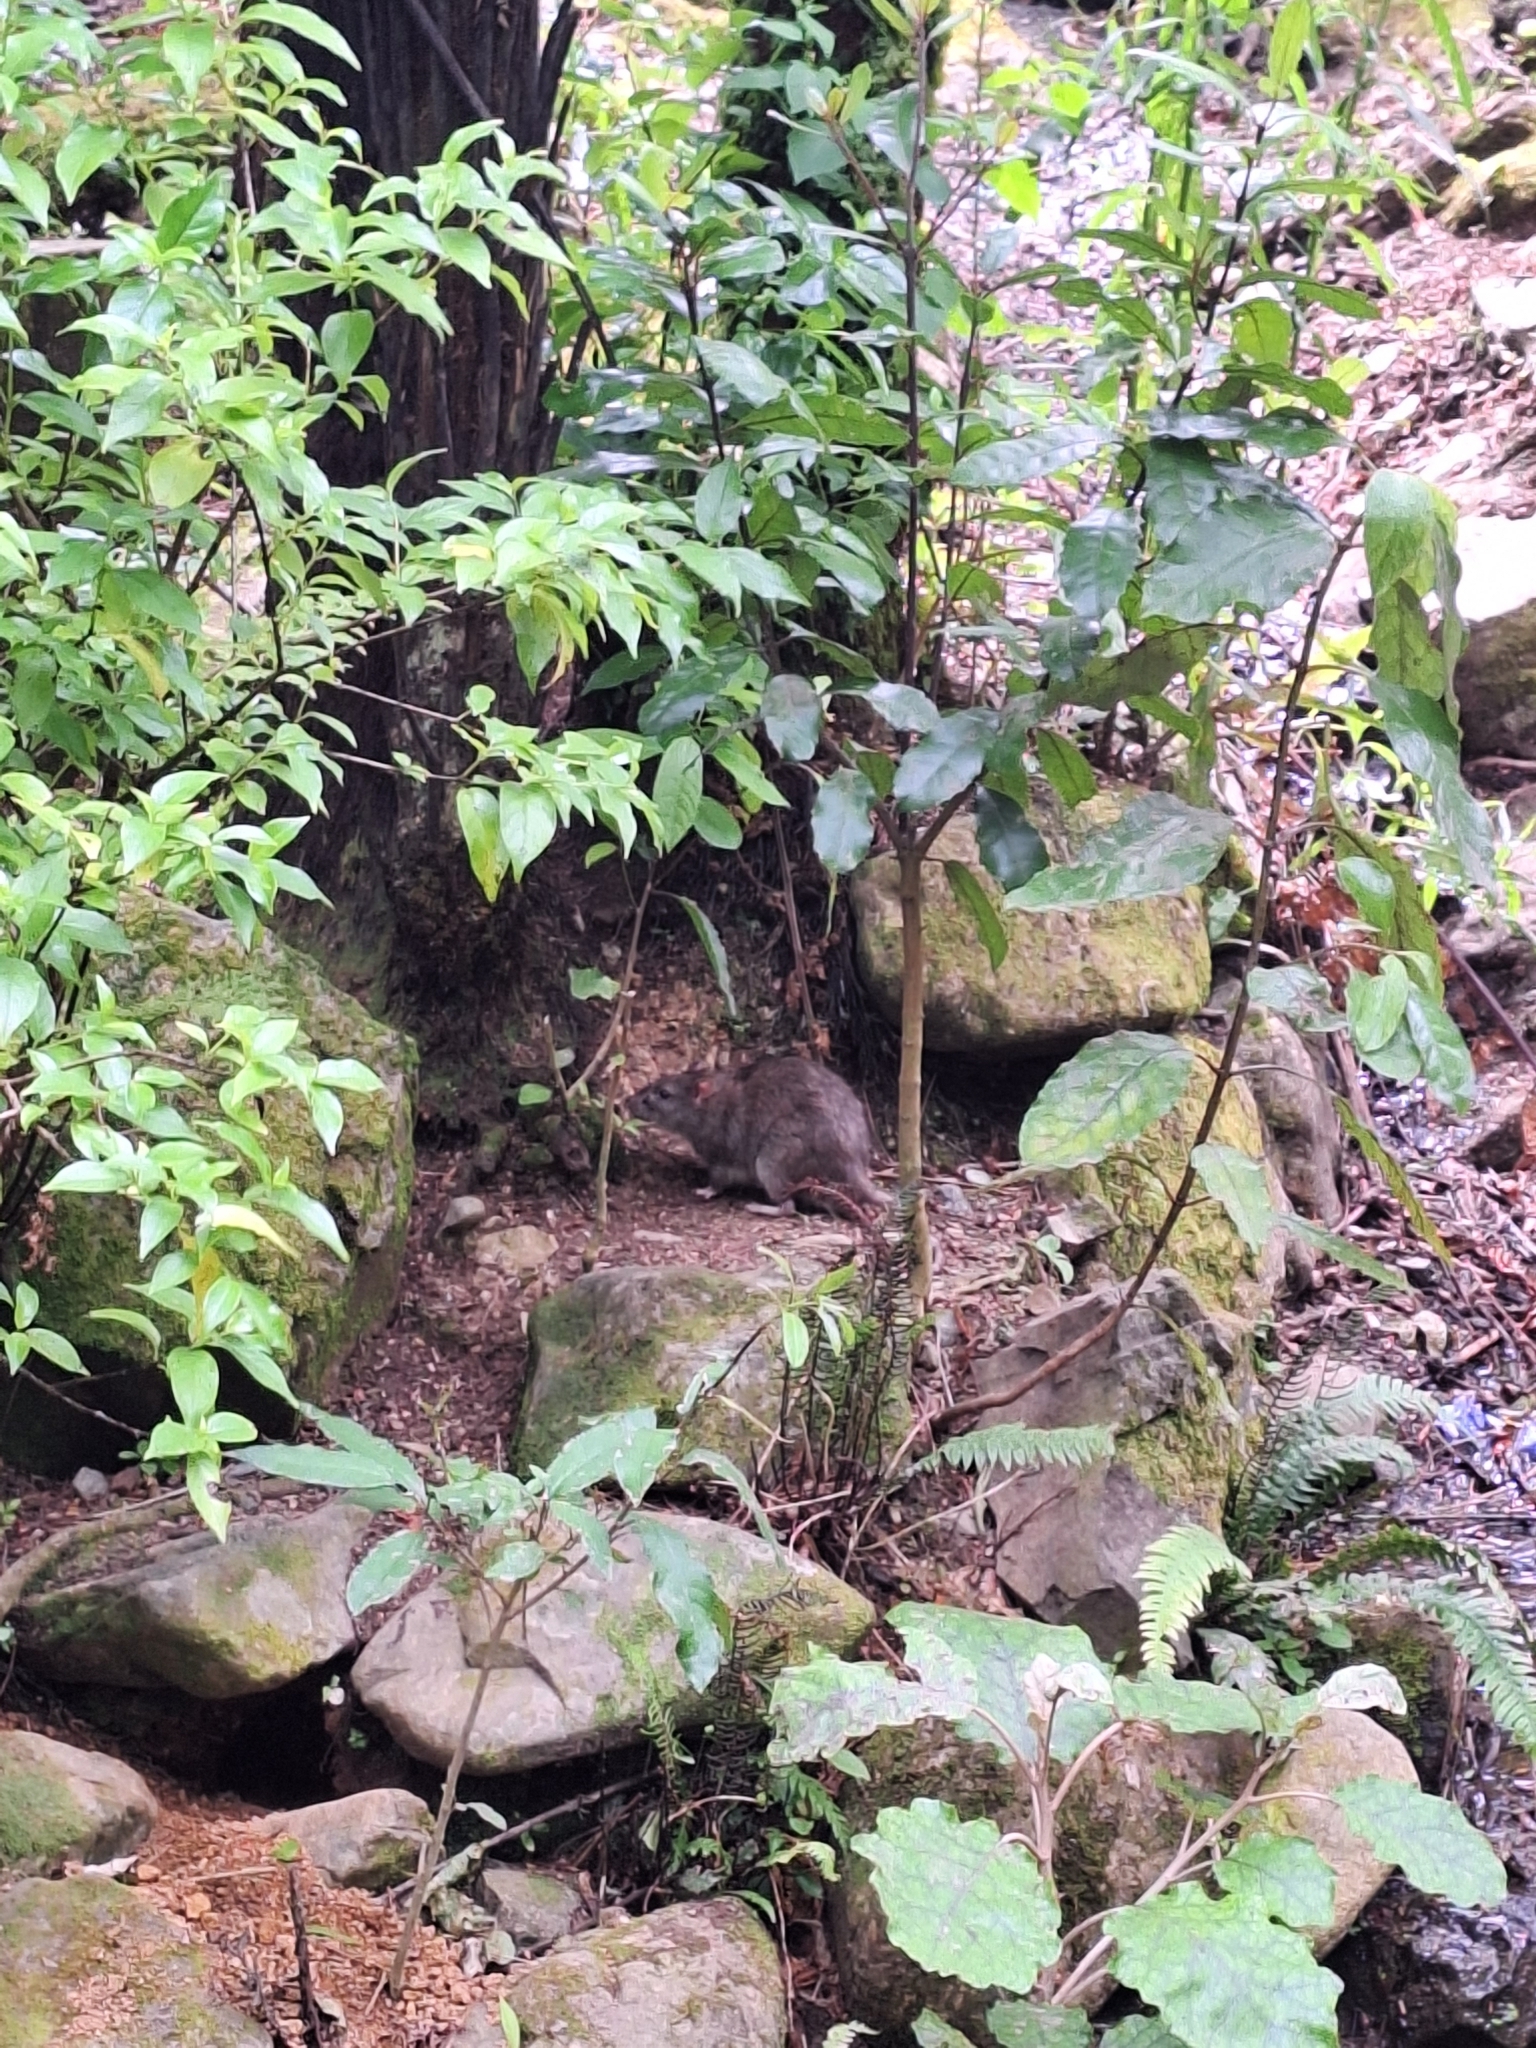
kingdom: Animalia
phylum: Chordata
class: Mammalia
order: Rodentia
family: Muridae
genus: Rattus
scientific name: Rattus norvegicus
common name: Brown rat
